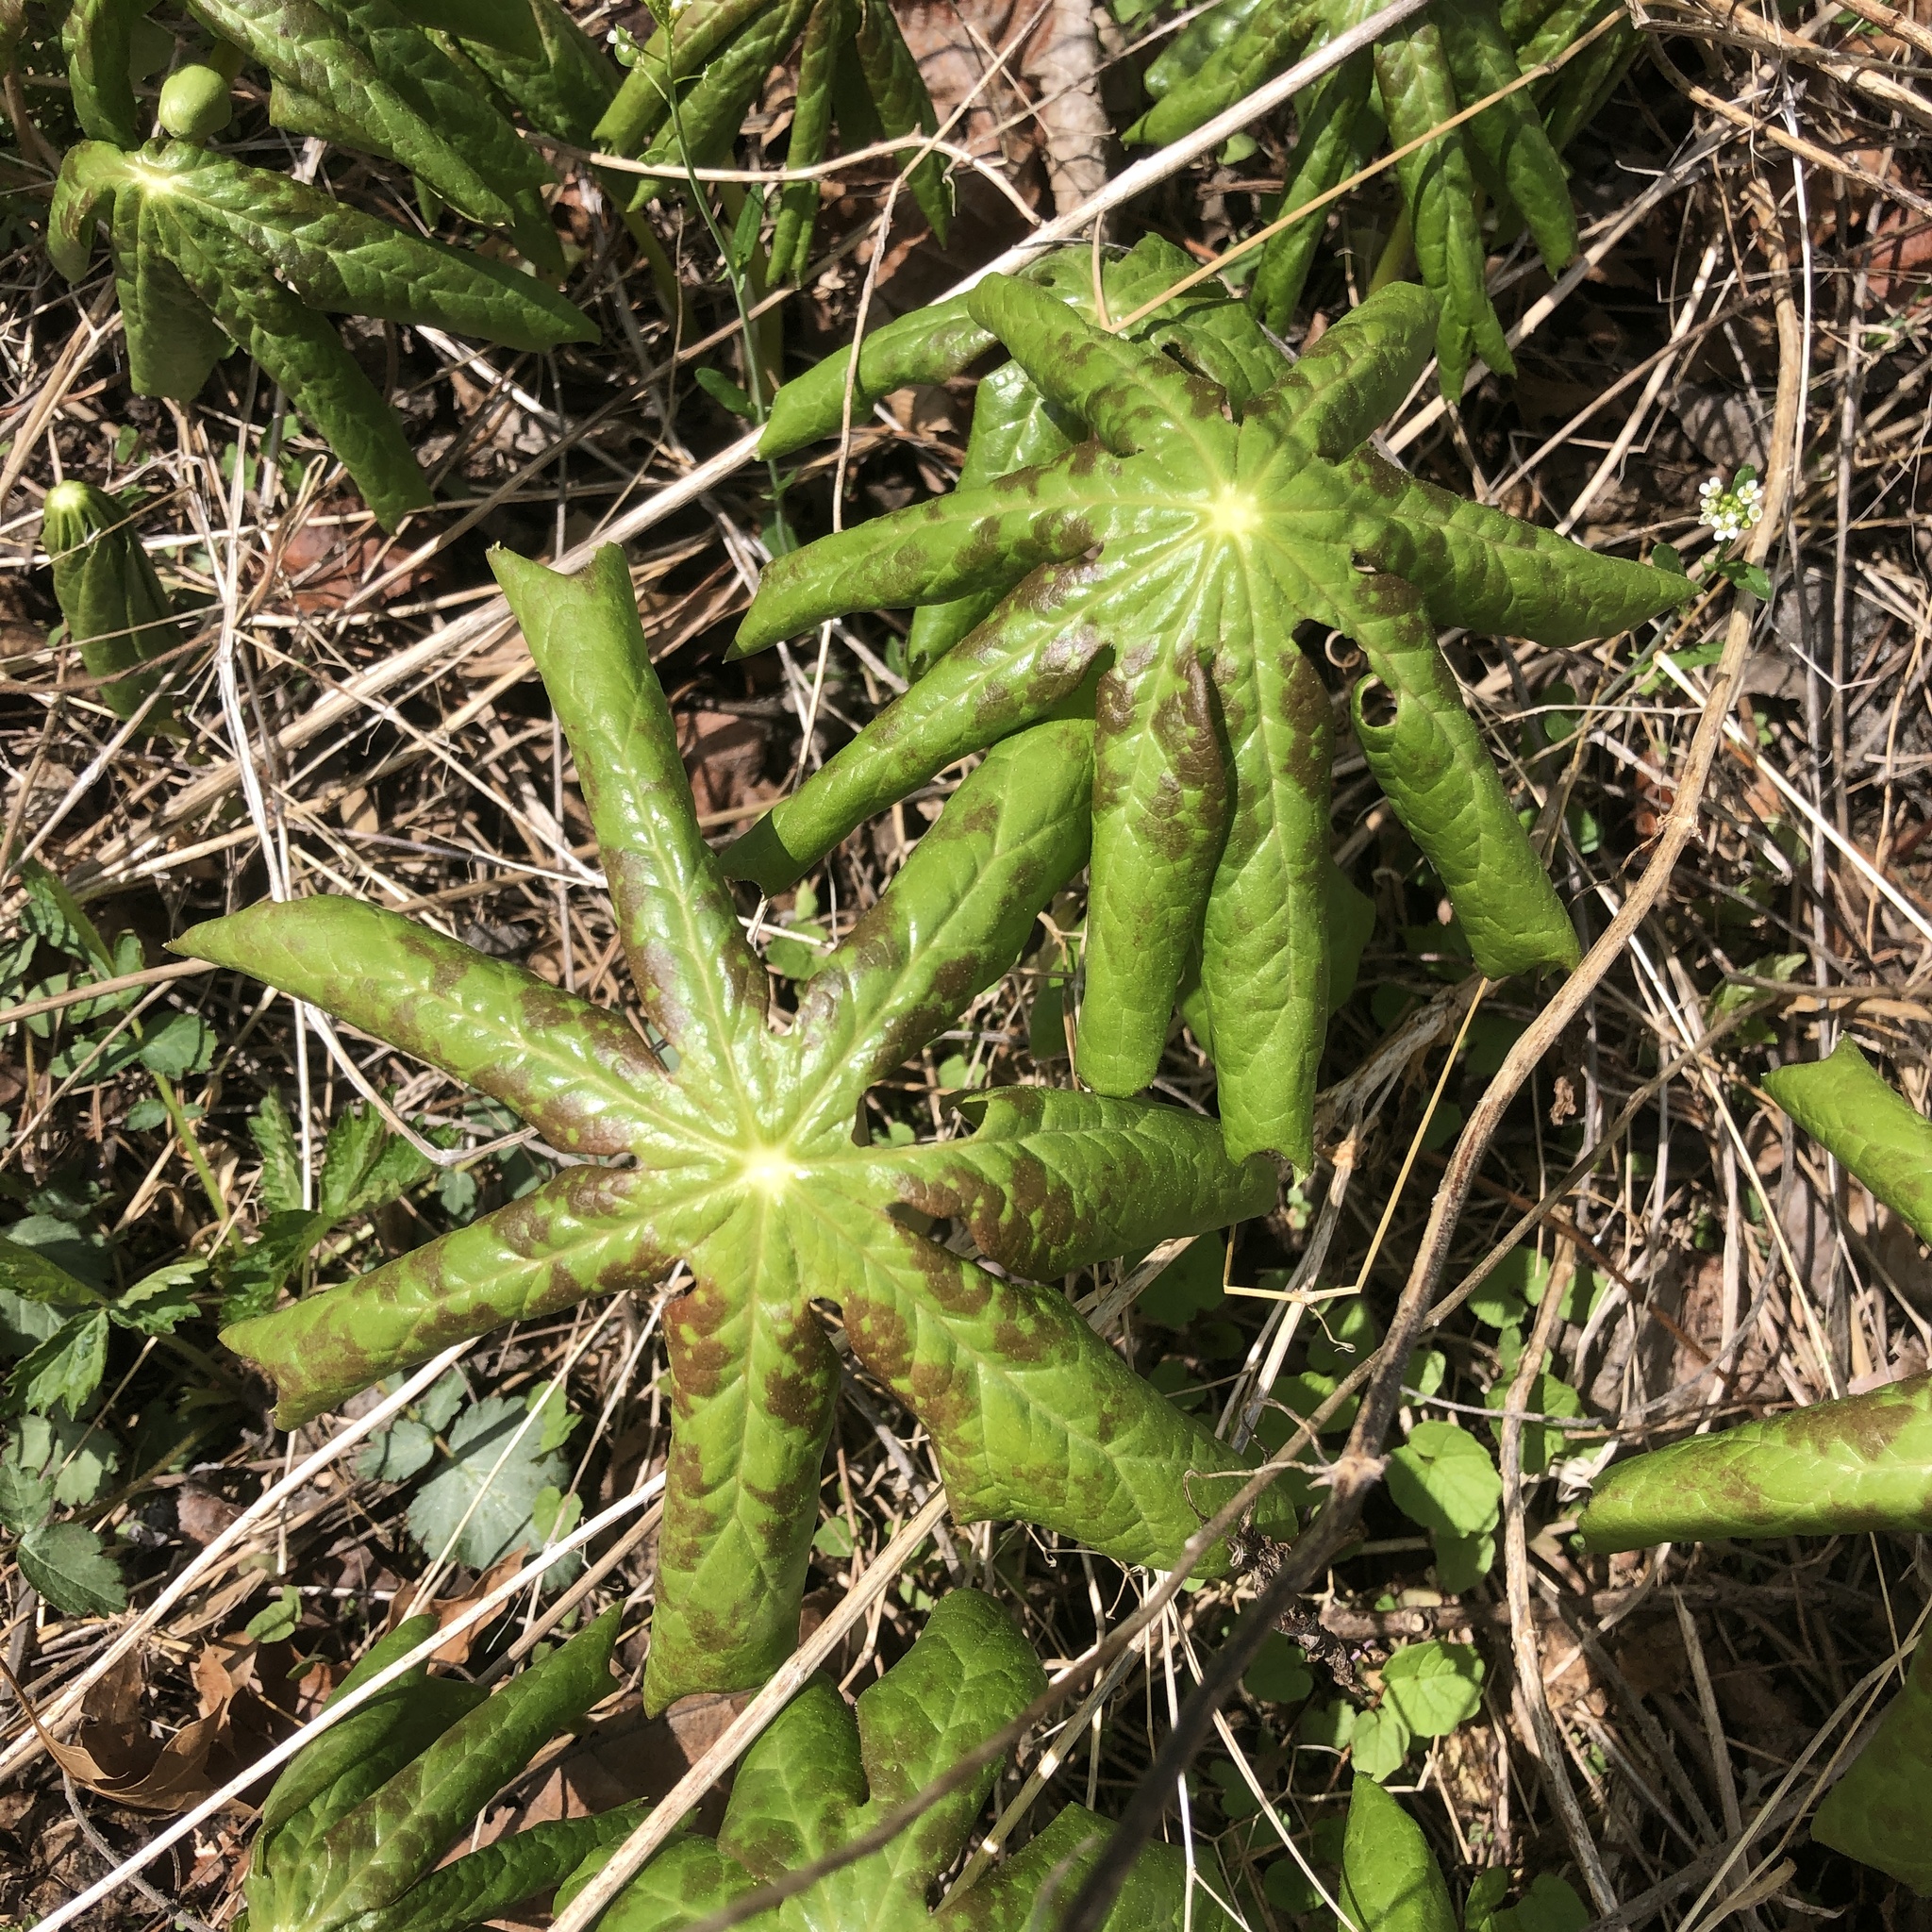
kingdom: Plantae
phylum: Tracheophyta
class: Magnoliopsida
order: Ranunculales
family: Berberidaceae
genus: Podophyllum
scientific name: Podophyllum peltatum
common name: Wild mandrake
